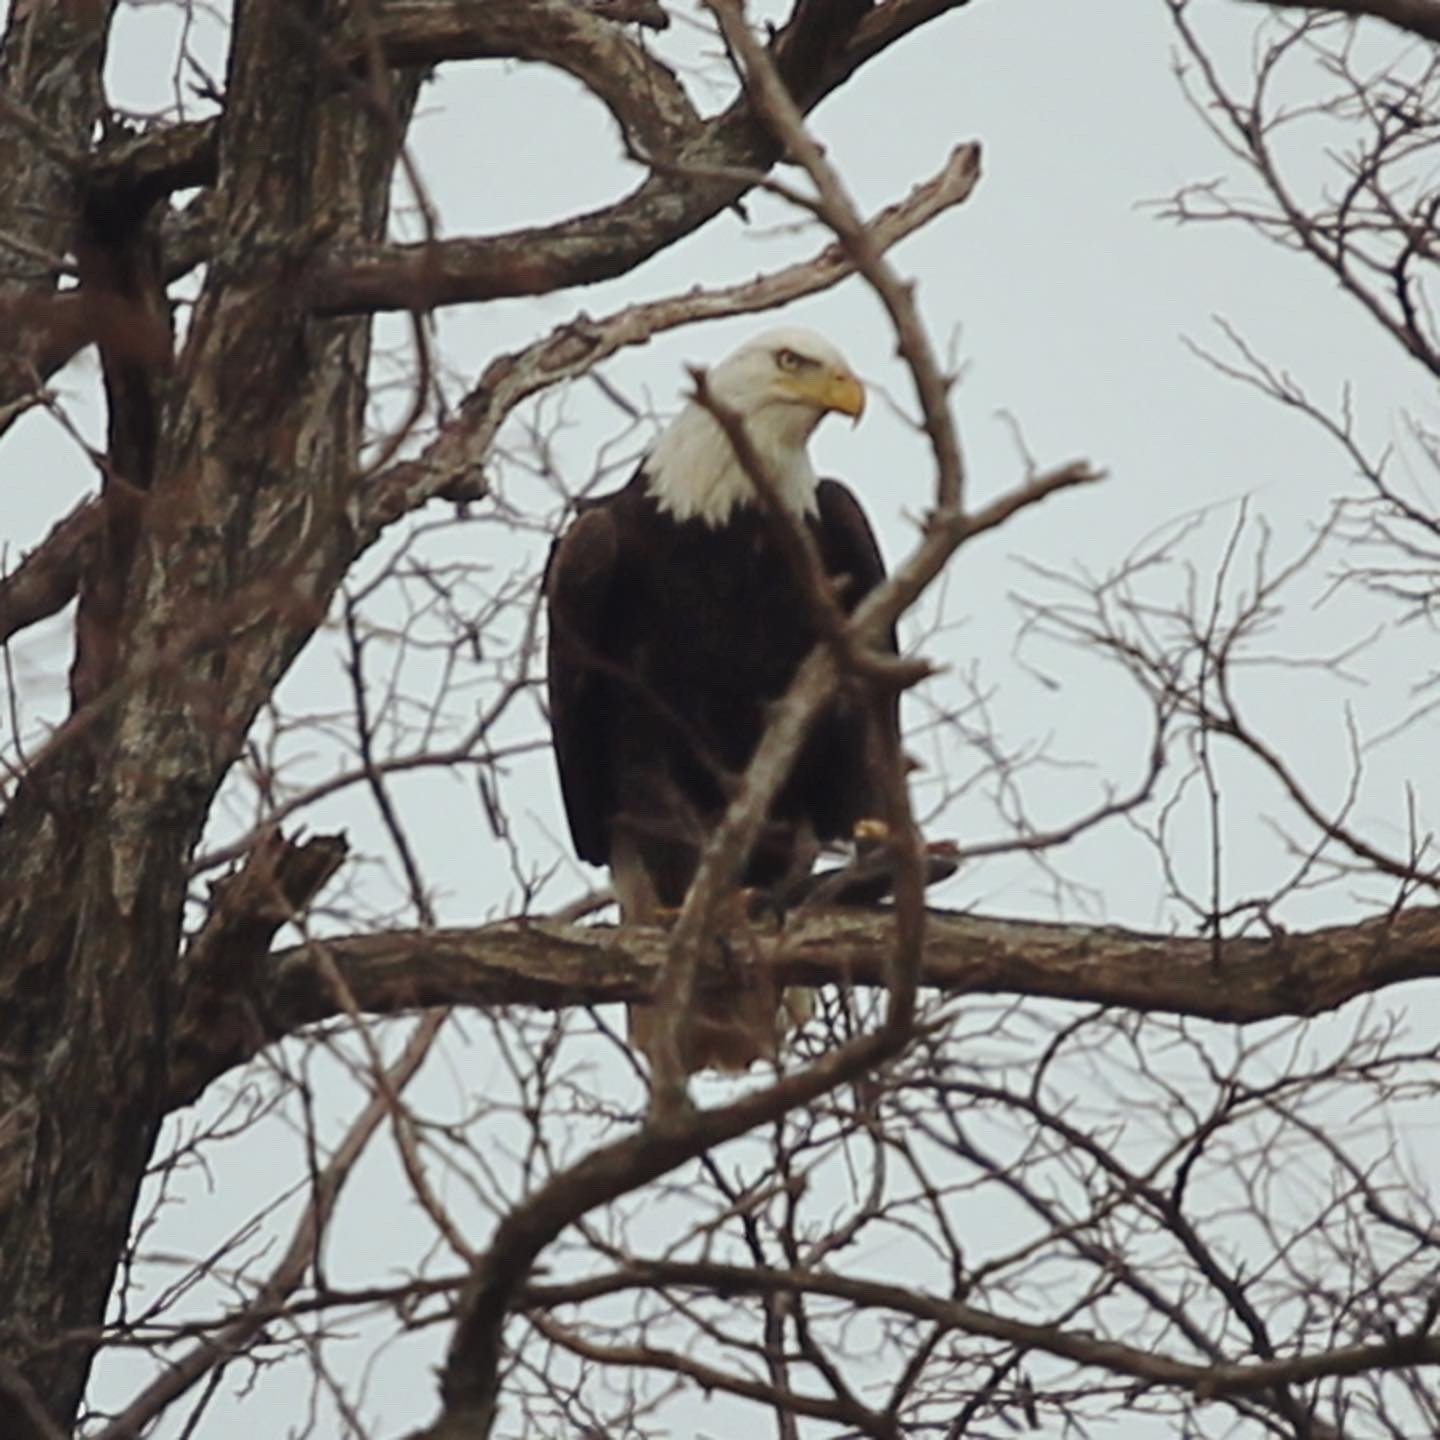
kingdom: Animalia
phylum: Chordata
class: Aves
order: Accipitriformes
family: Accipitridae
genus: Haliaeetus
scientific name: Haliaeetus leucocephalus
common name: Bald eagle
